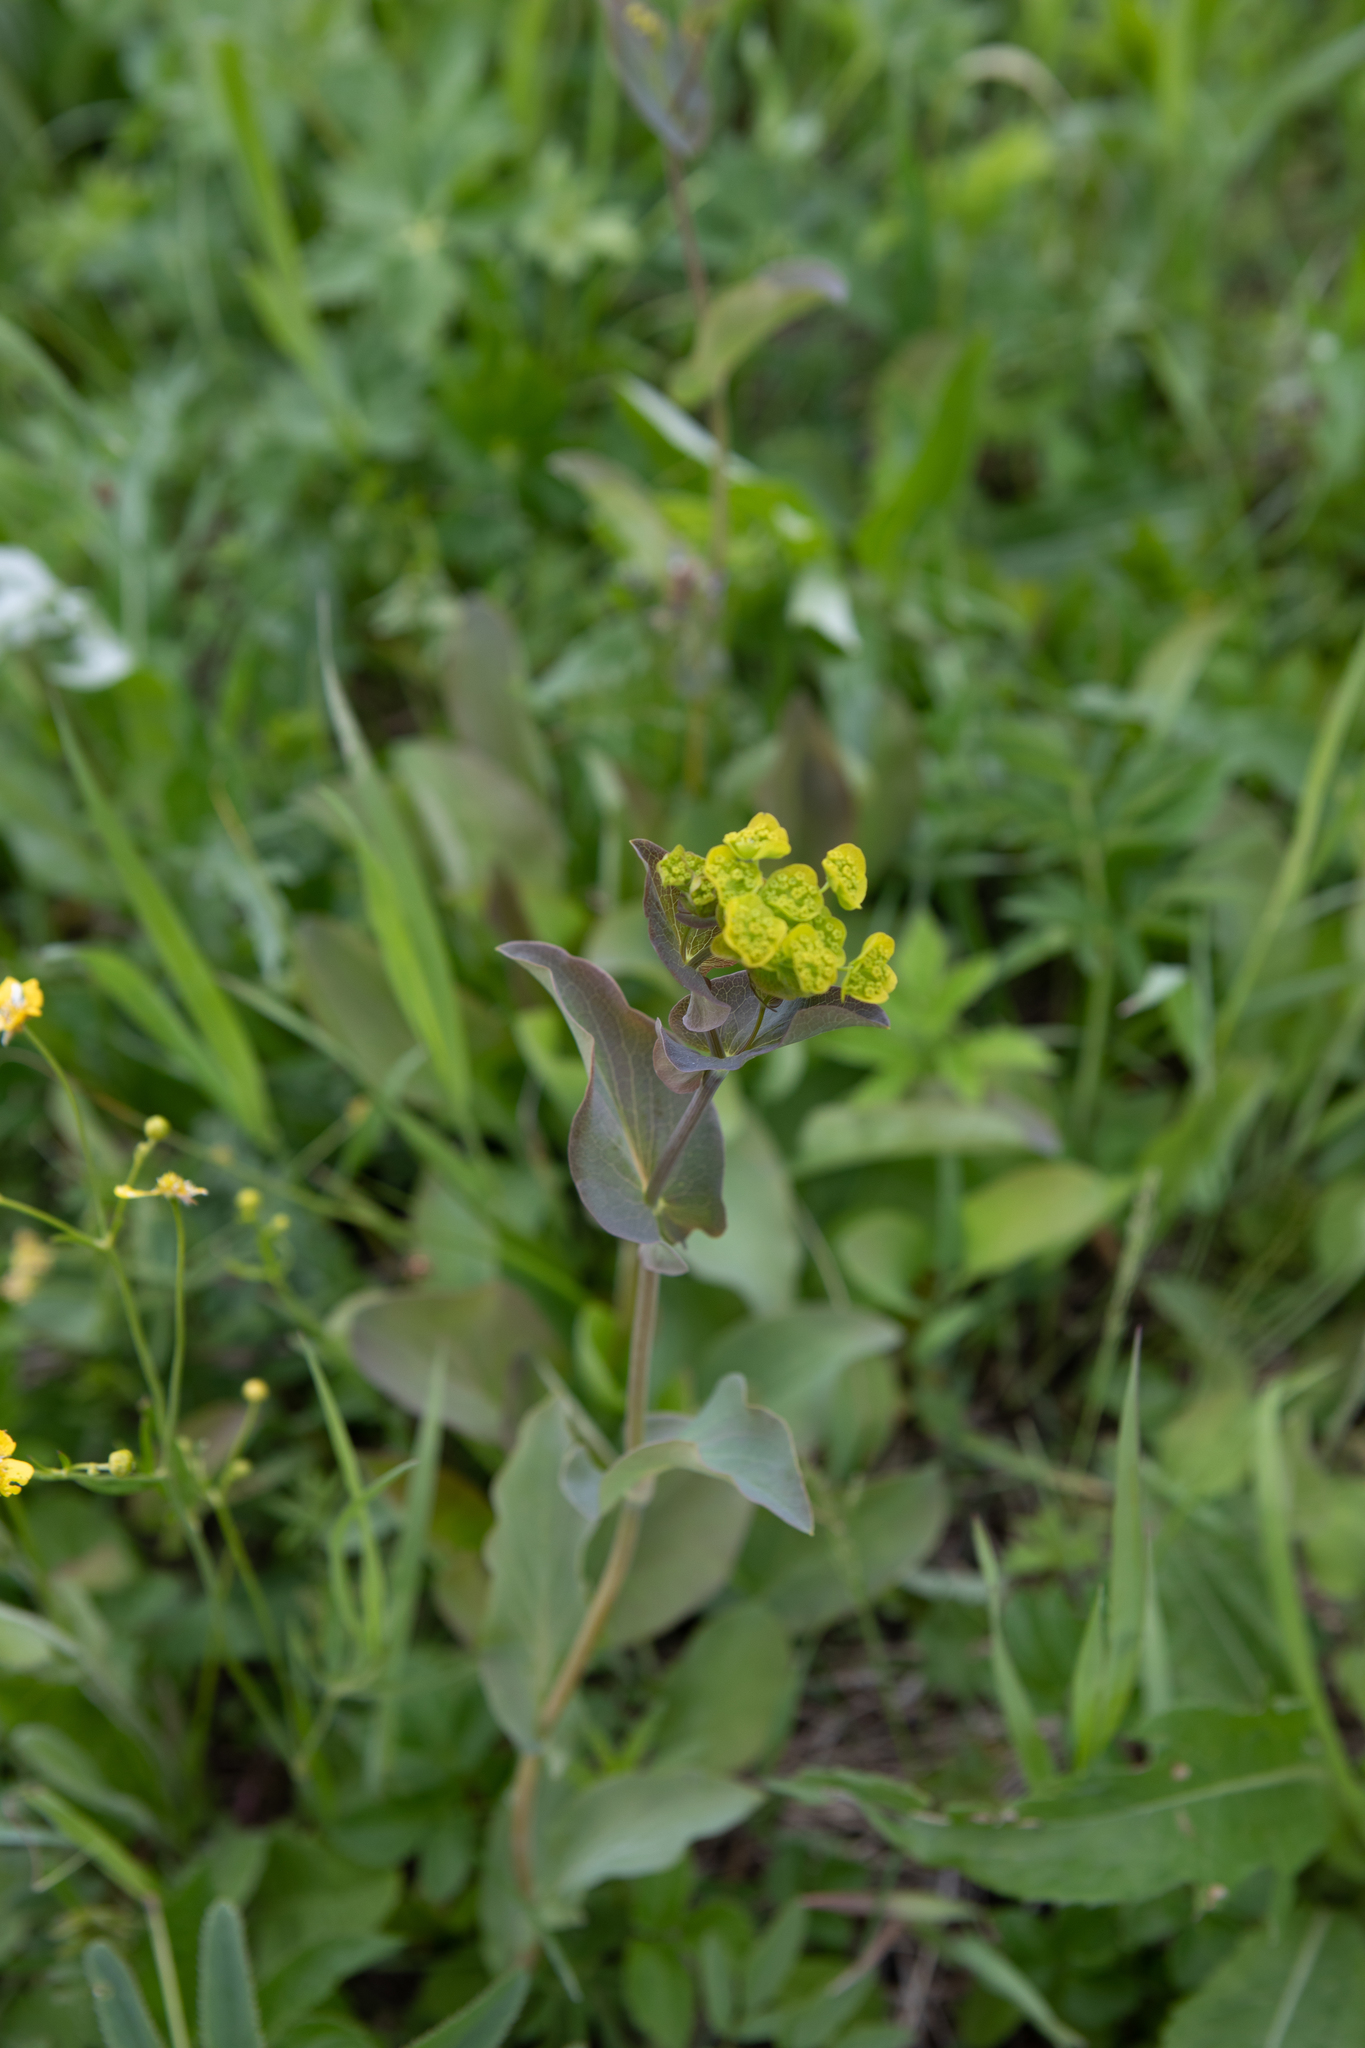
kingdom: Plantae
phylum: Tracheophyta
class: Magnoliopsida
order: Apiales
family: Apiaceae
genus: Bupleurum
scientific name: Bupleurum aureum
